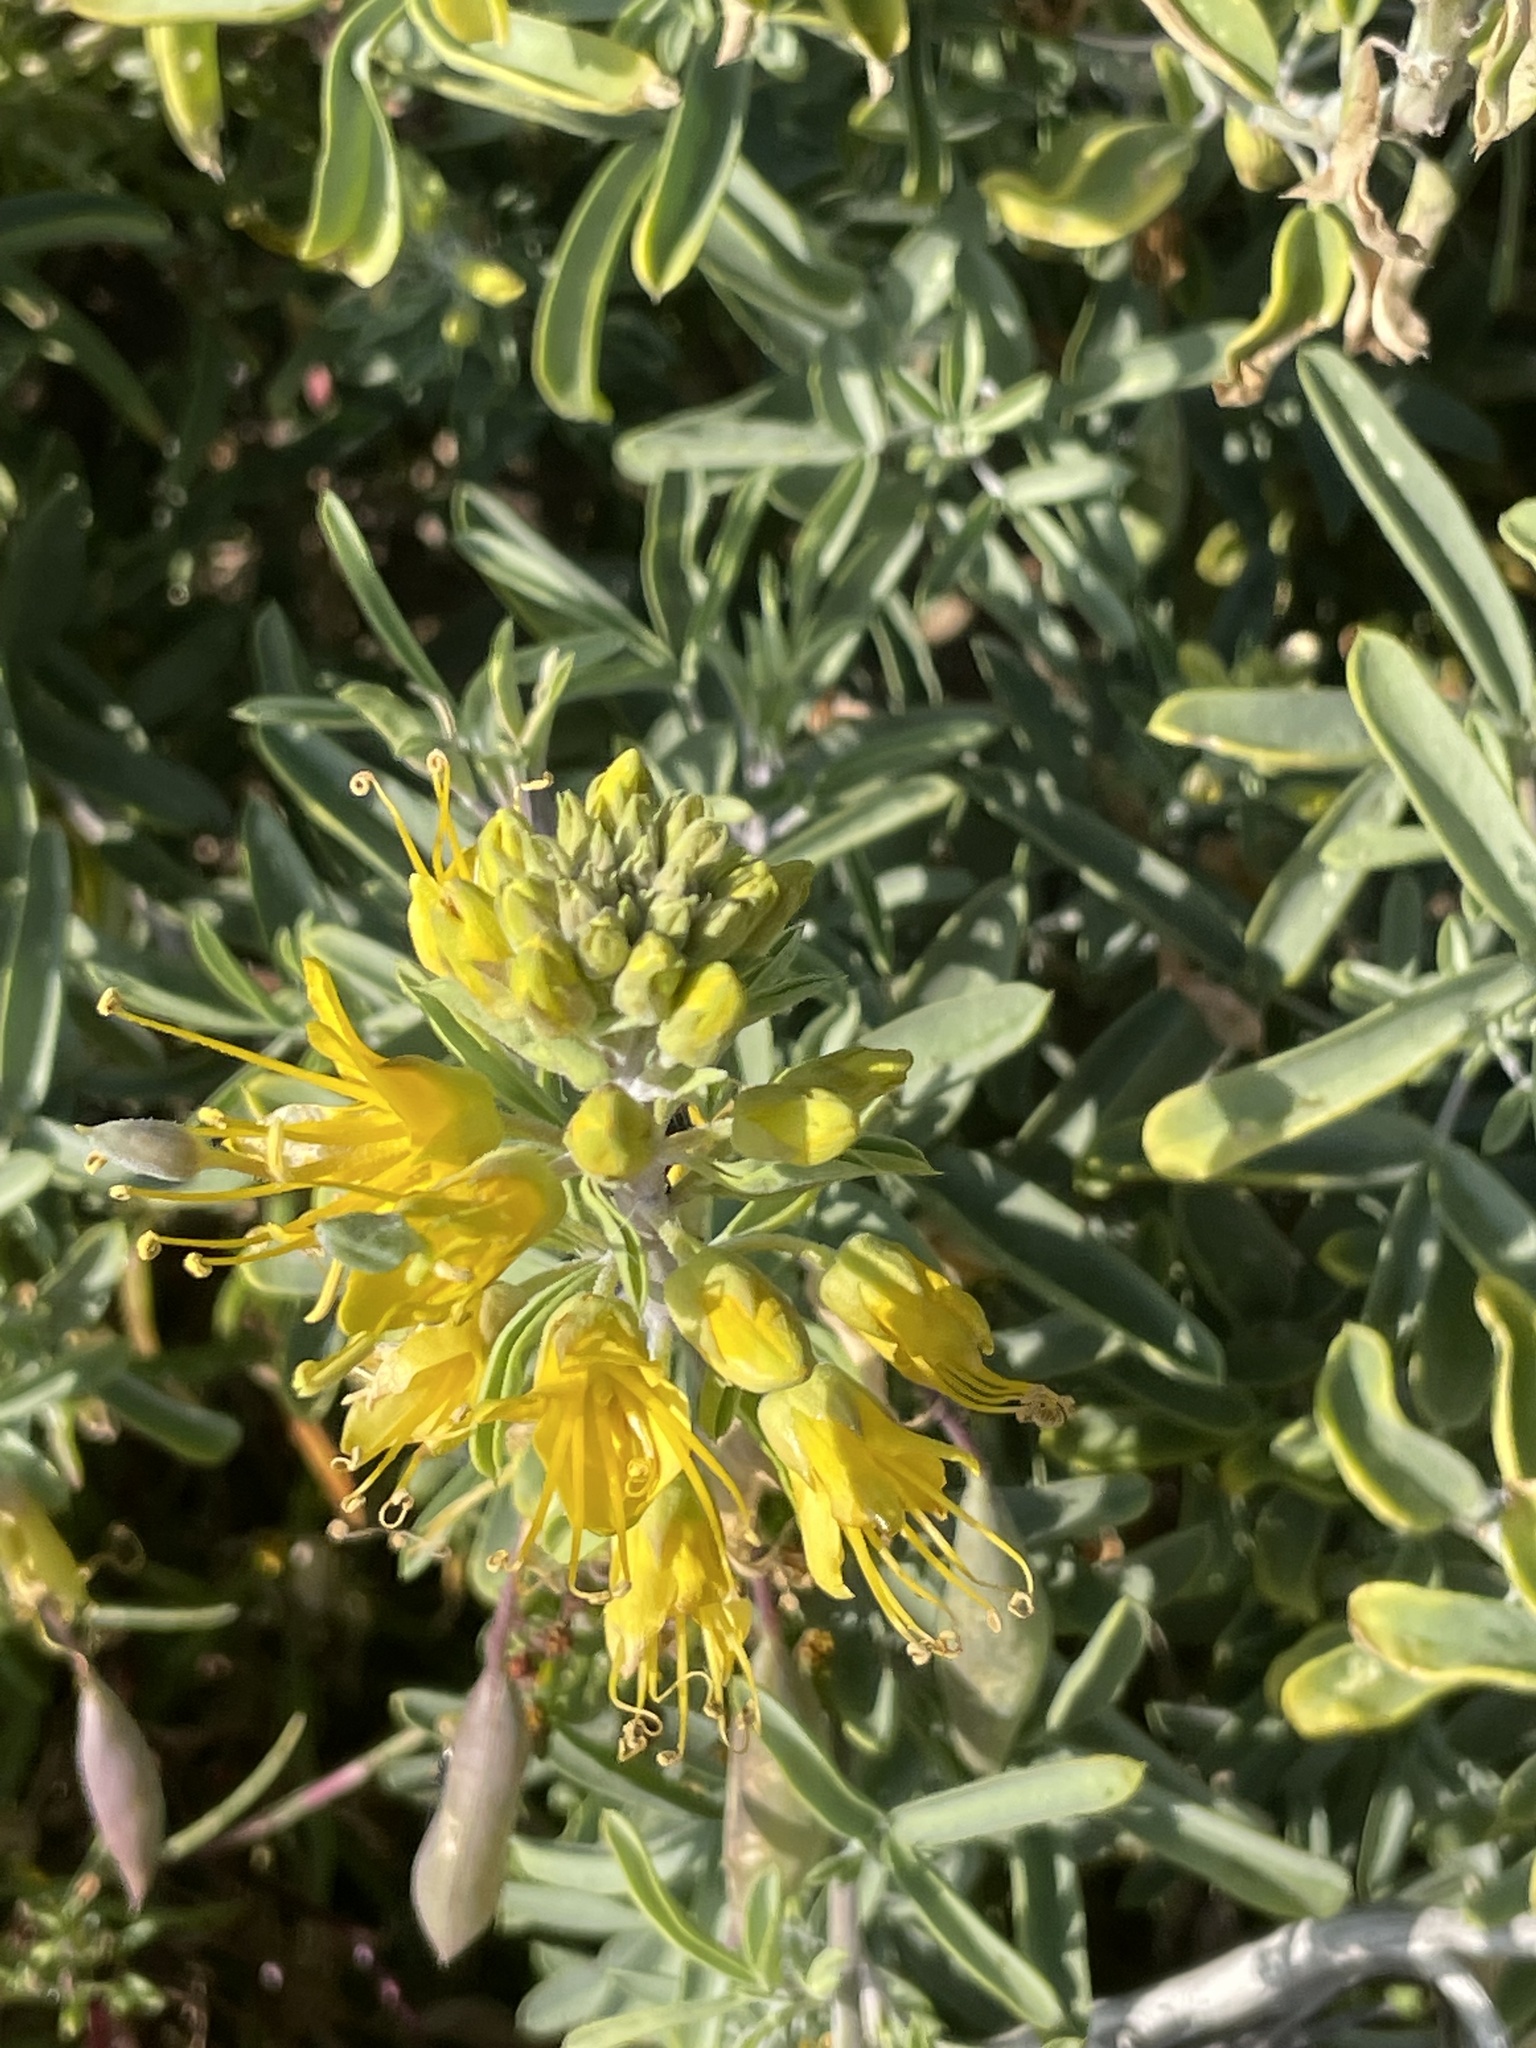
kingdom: Plantae
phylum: Tracheophyta
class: Magnoliopsida
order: Brassicales
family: Cleomaceae
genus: Cleomella
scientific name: Cleomella arborea
